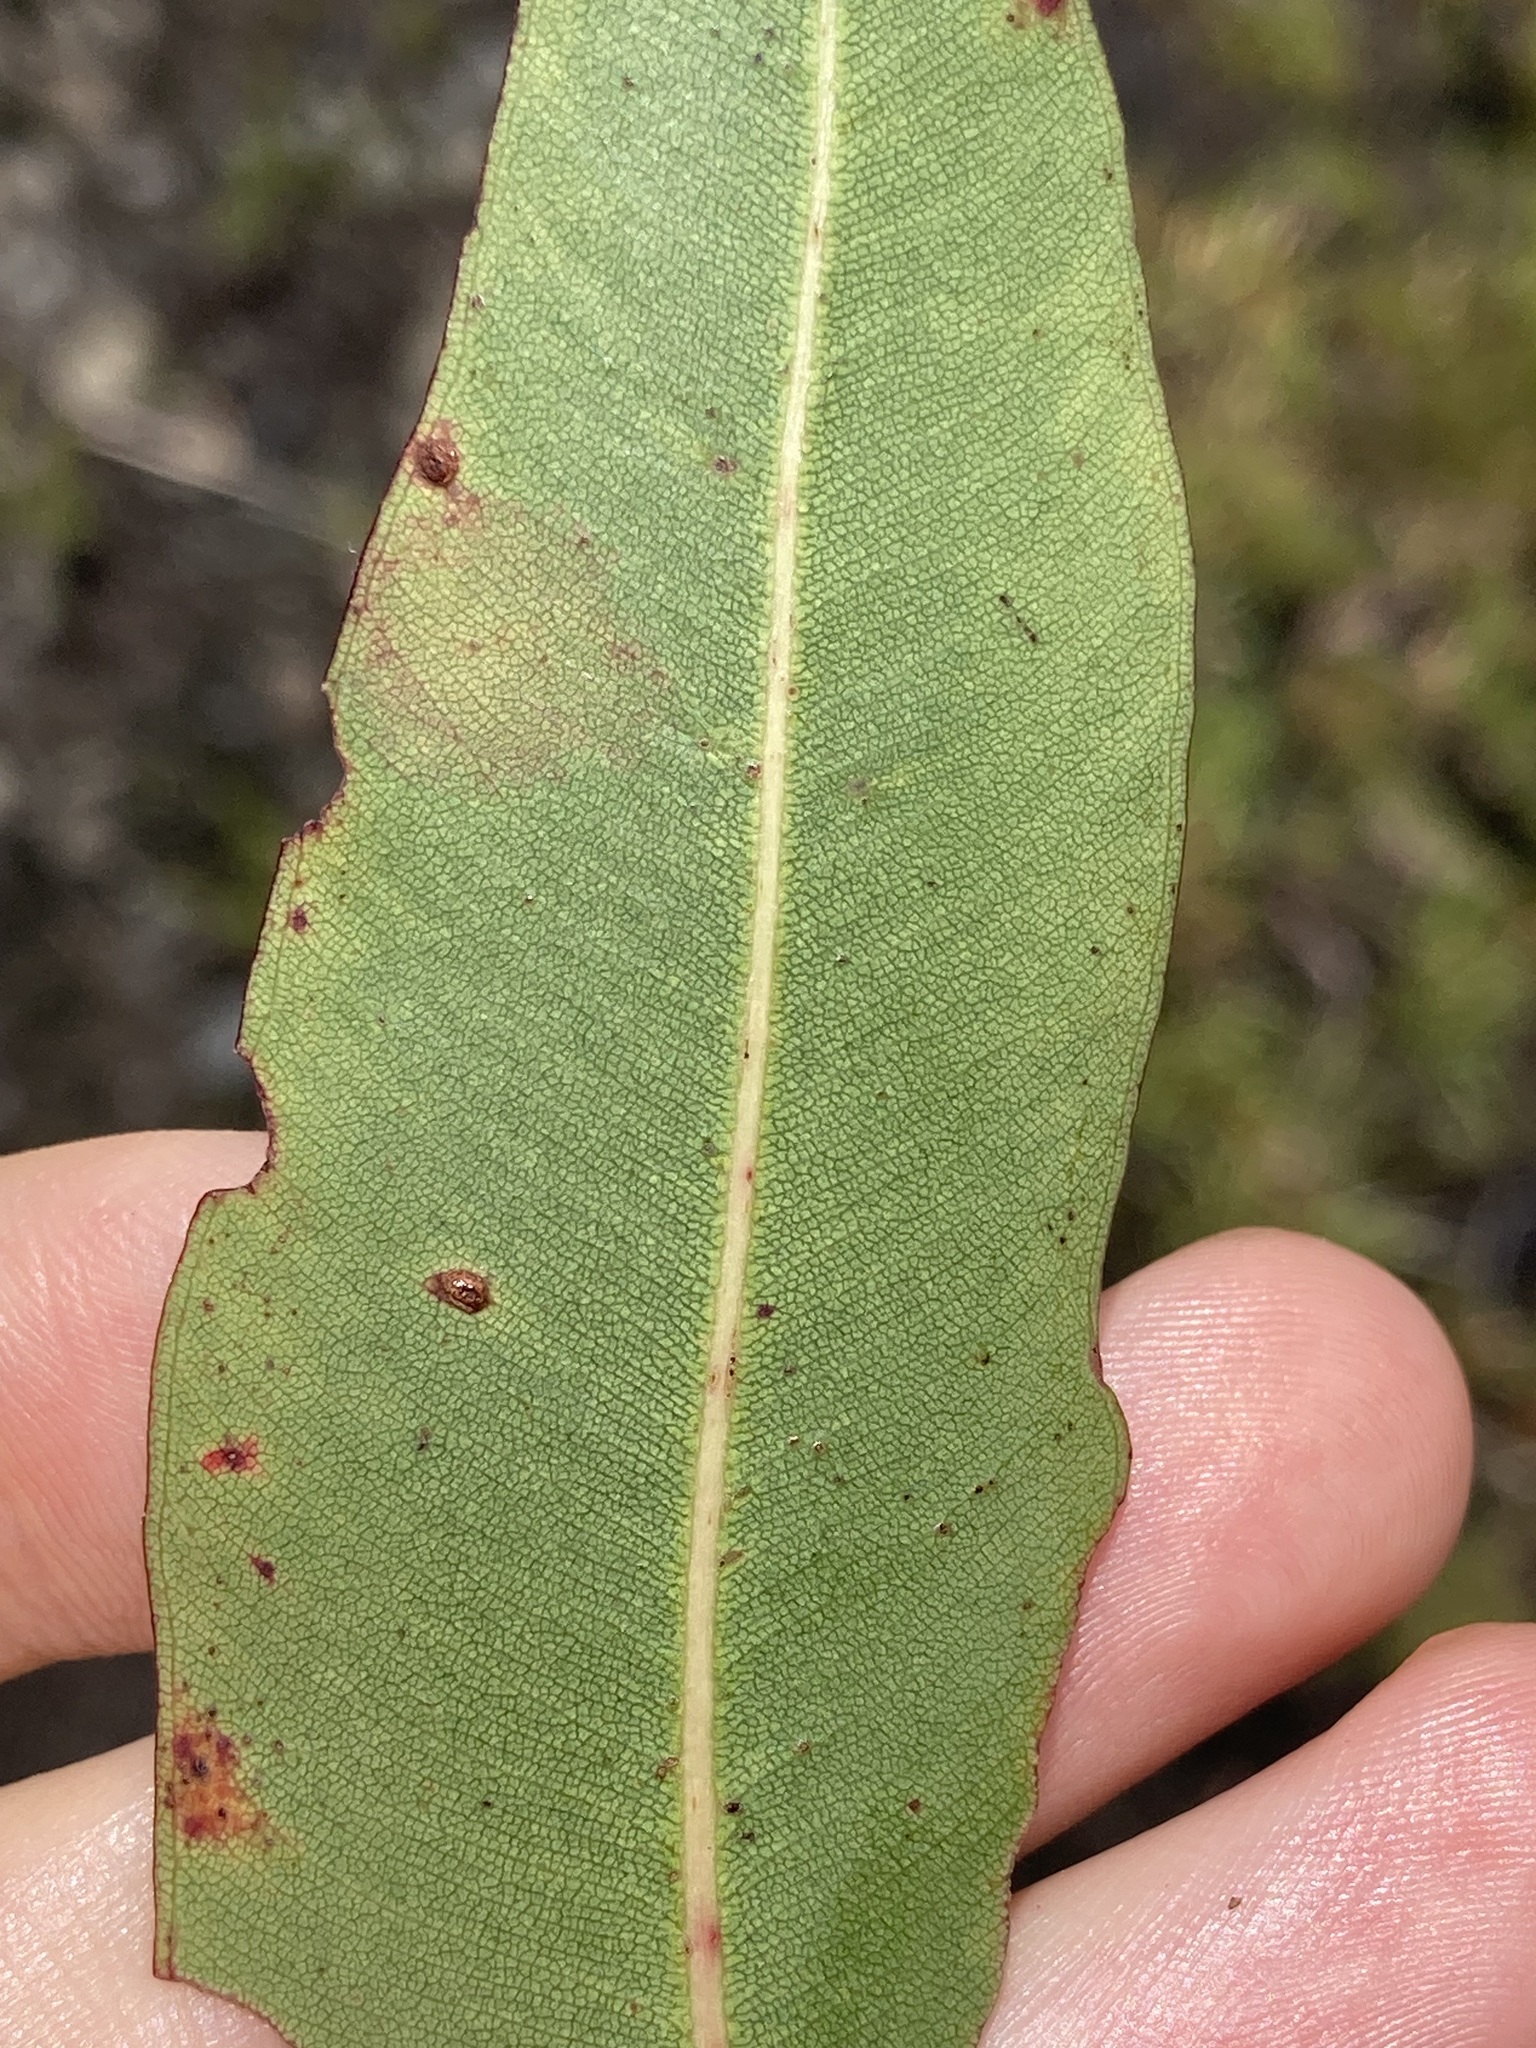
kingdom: Plantae
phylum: Tracheophyta
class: Magnoliopsida
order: Myrtales
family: Myrtaceae
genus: Corymbia
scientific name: Corymbia gummifera
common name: Red bloodwood
